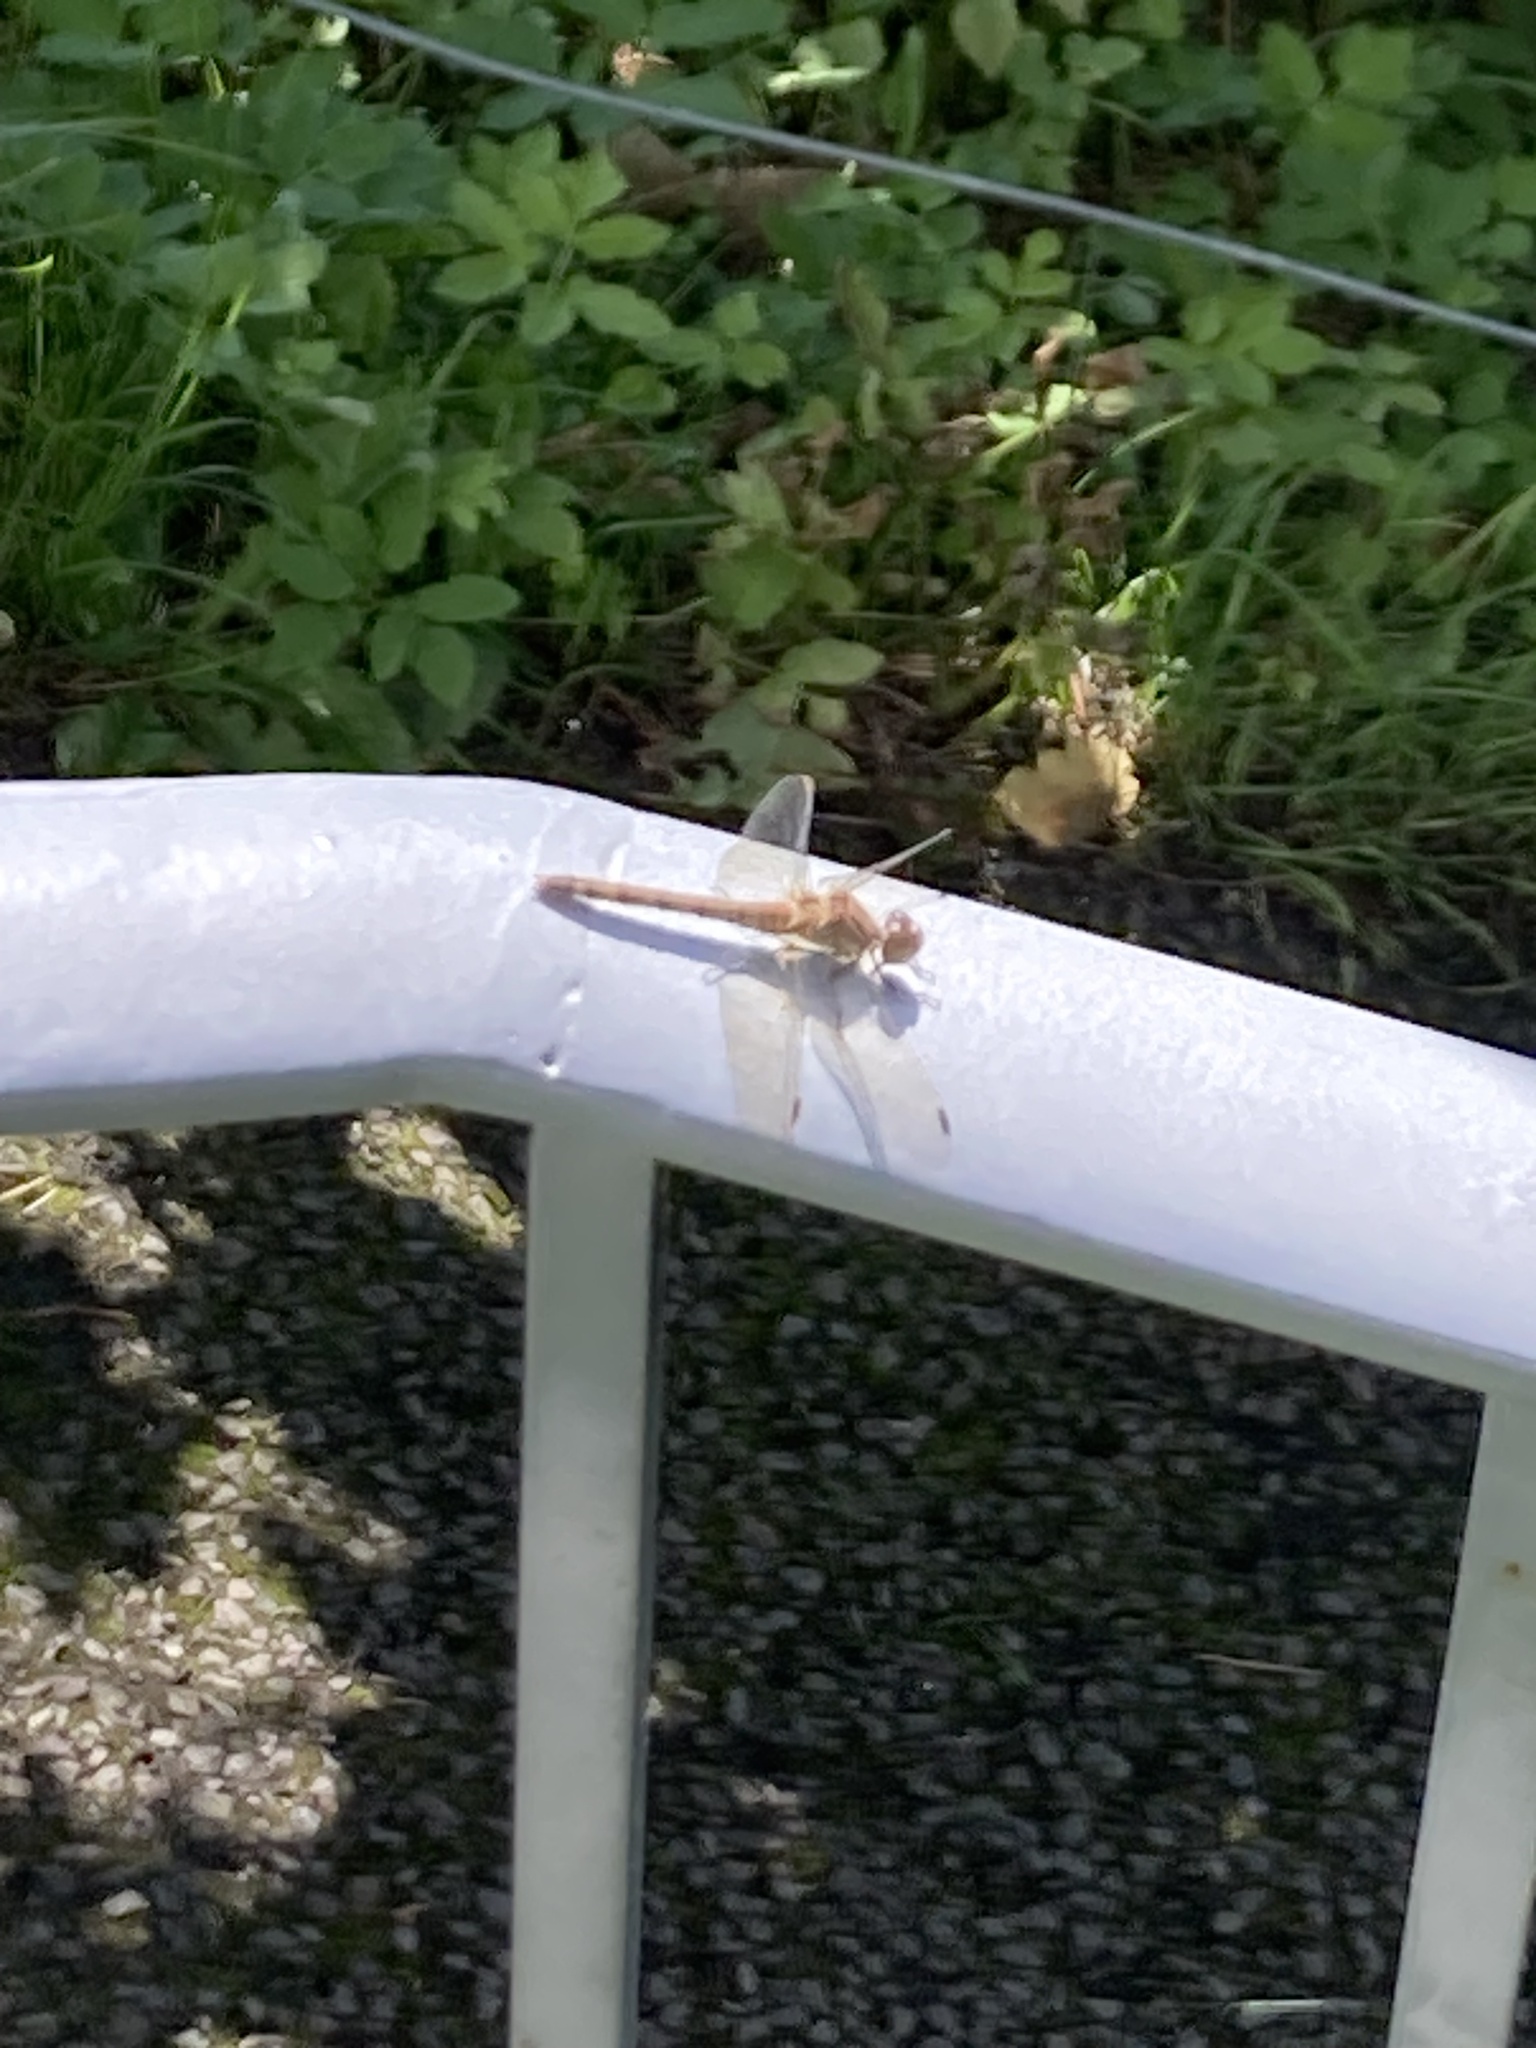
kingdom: Animalia
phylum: Arthropoda
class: Insecta
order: Odonata
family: Libellulidae
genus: Sympetrum
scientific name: Sympetrum striolatum
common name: Common darter
